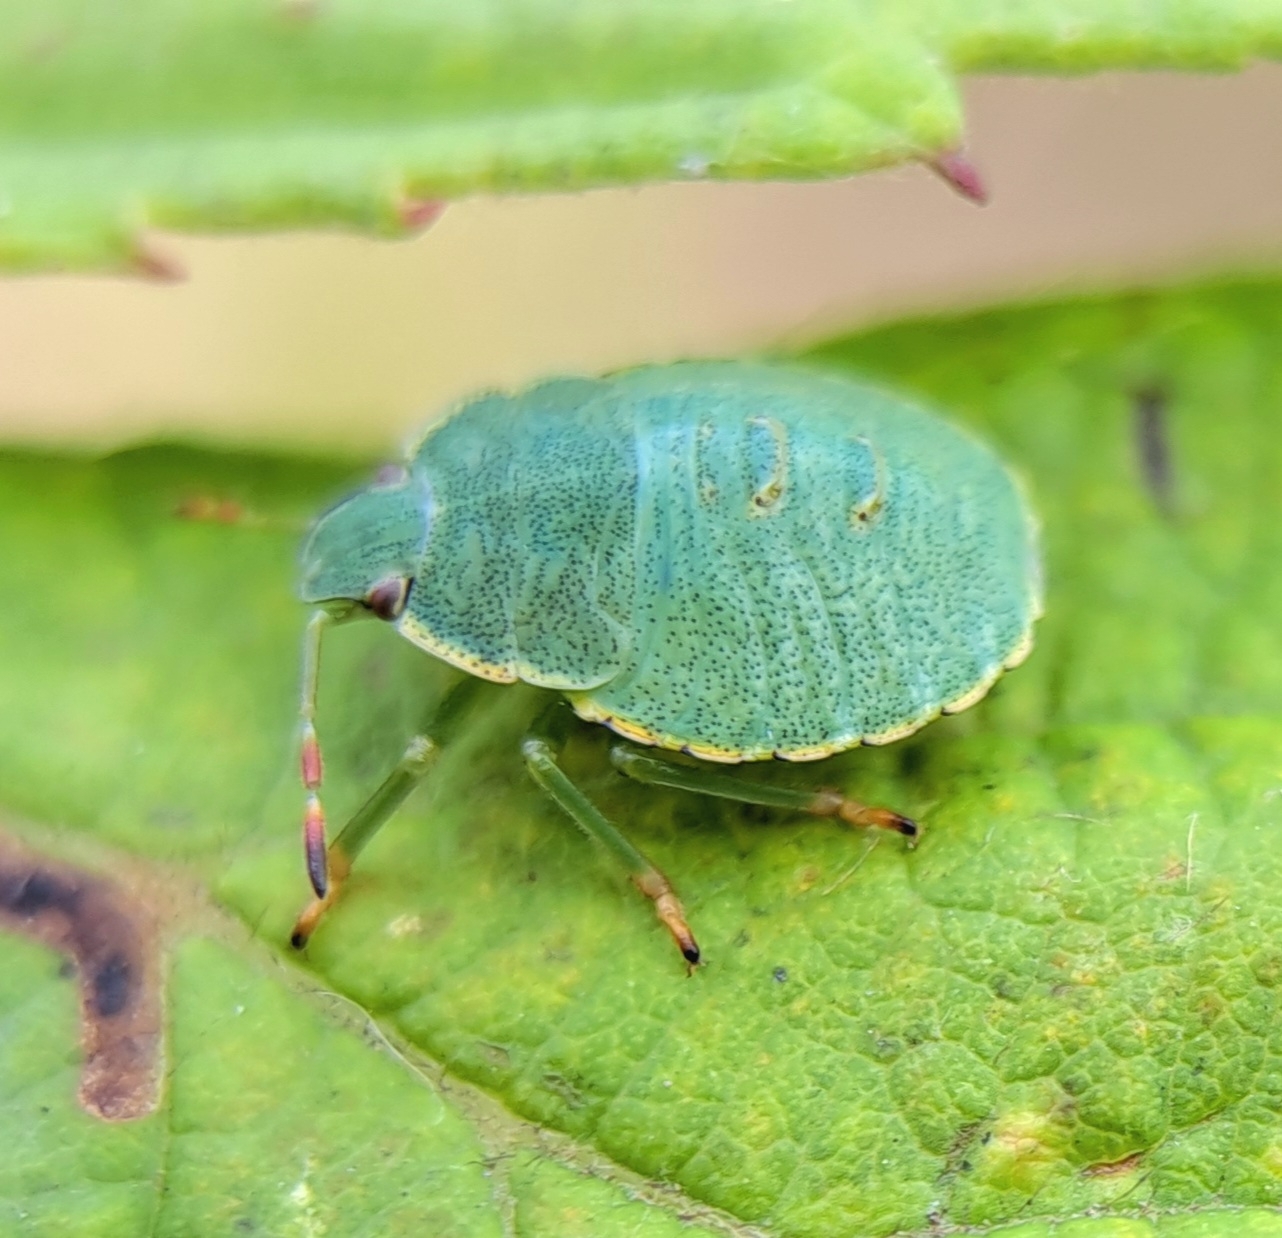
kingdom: Animalia
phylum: Arthropoda
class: Insecta
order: Hemiptera
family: Pentatomidae
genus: Palomena
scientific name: Palomena prasina
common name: Green shieldbug
